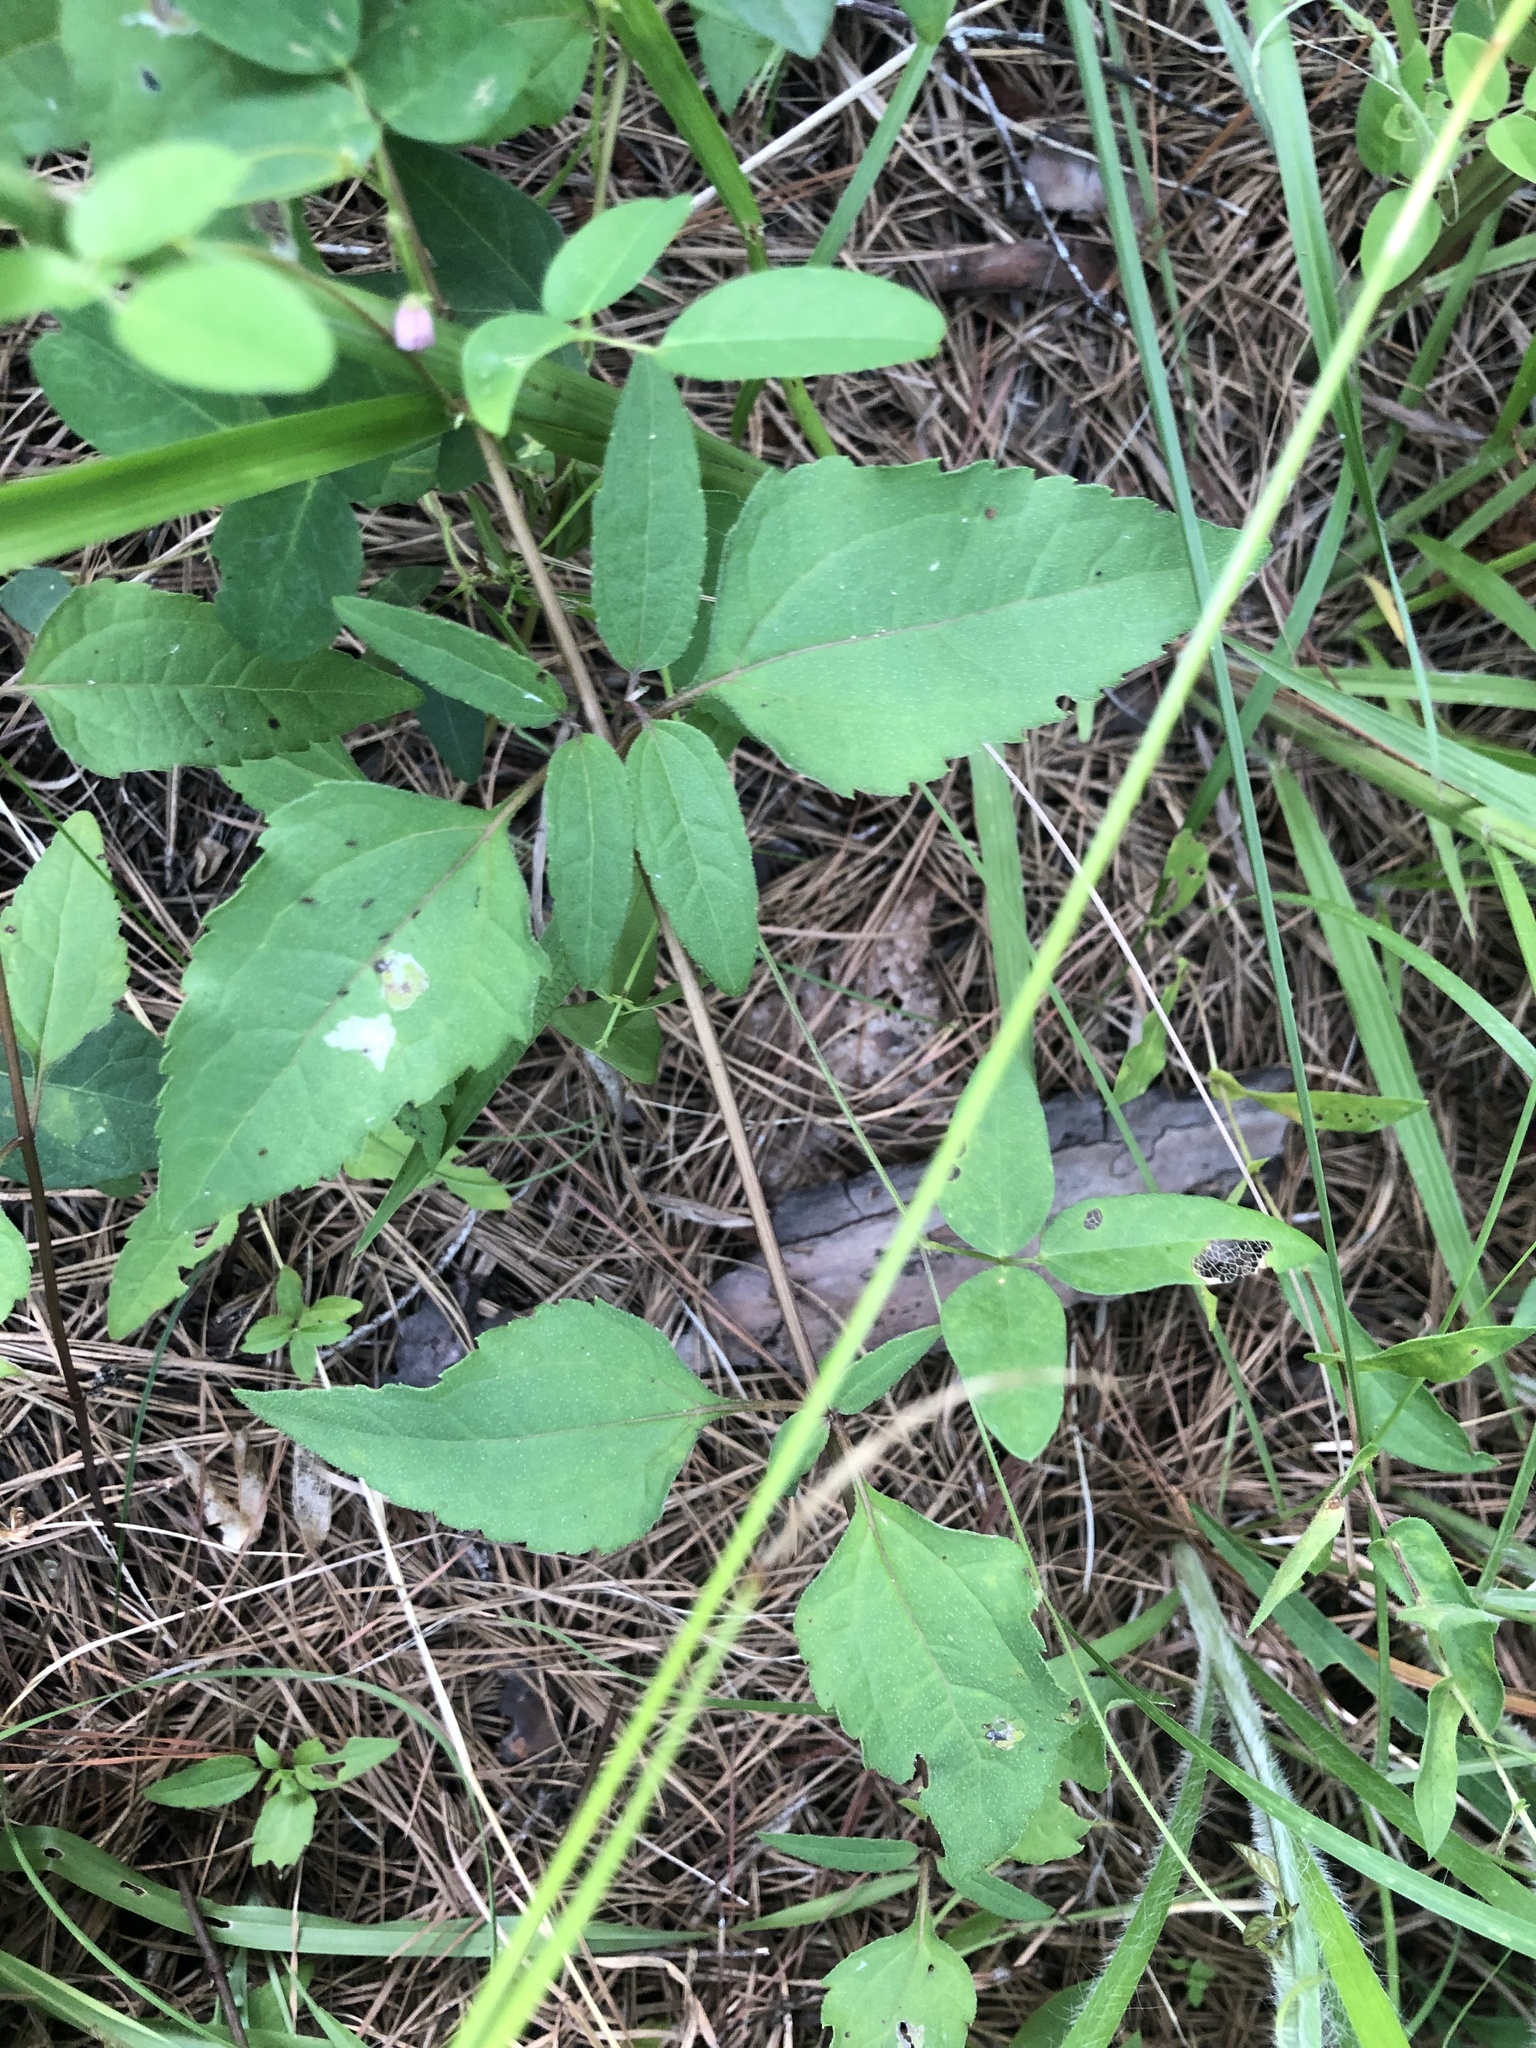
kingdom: Plantae
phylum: Tracheophyta
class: Magnoliopsida
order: Asterales
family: Asteraceae
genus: Heliopsis
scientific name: Heliopsis gracilis
